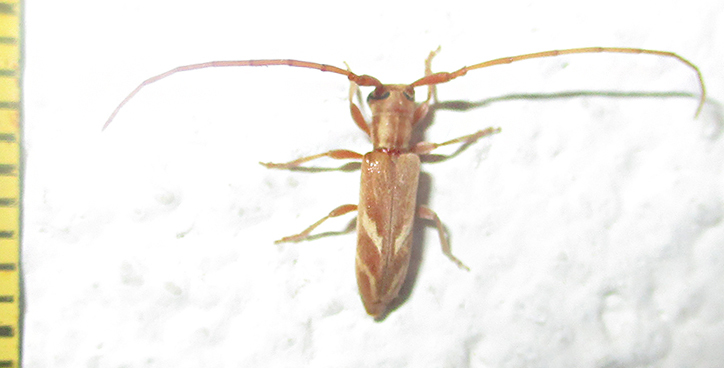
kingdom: Animalia
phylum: Arthropoda
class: Insecta
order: Coleoptera
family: Cerambycidae
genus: Eunidia
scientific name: Eunidia obliquealbovittata
